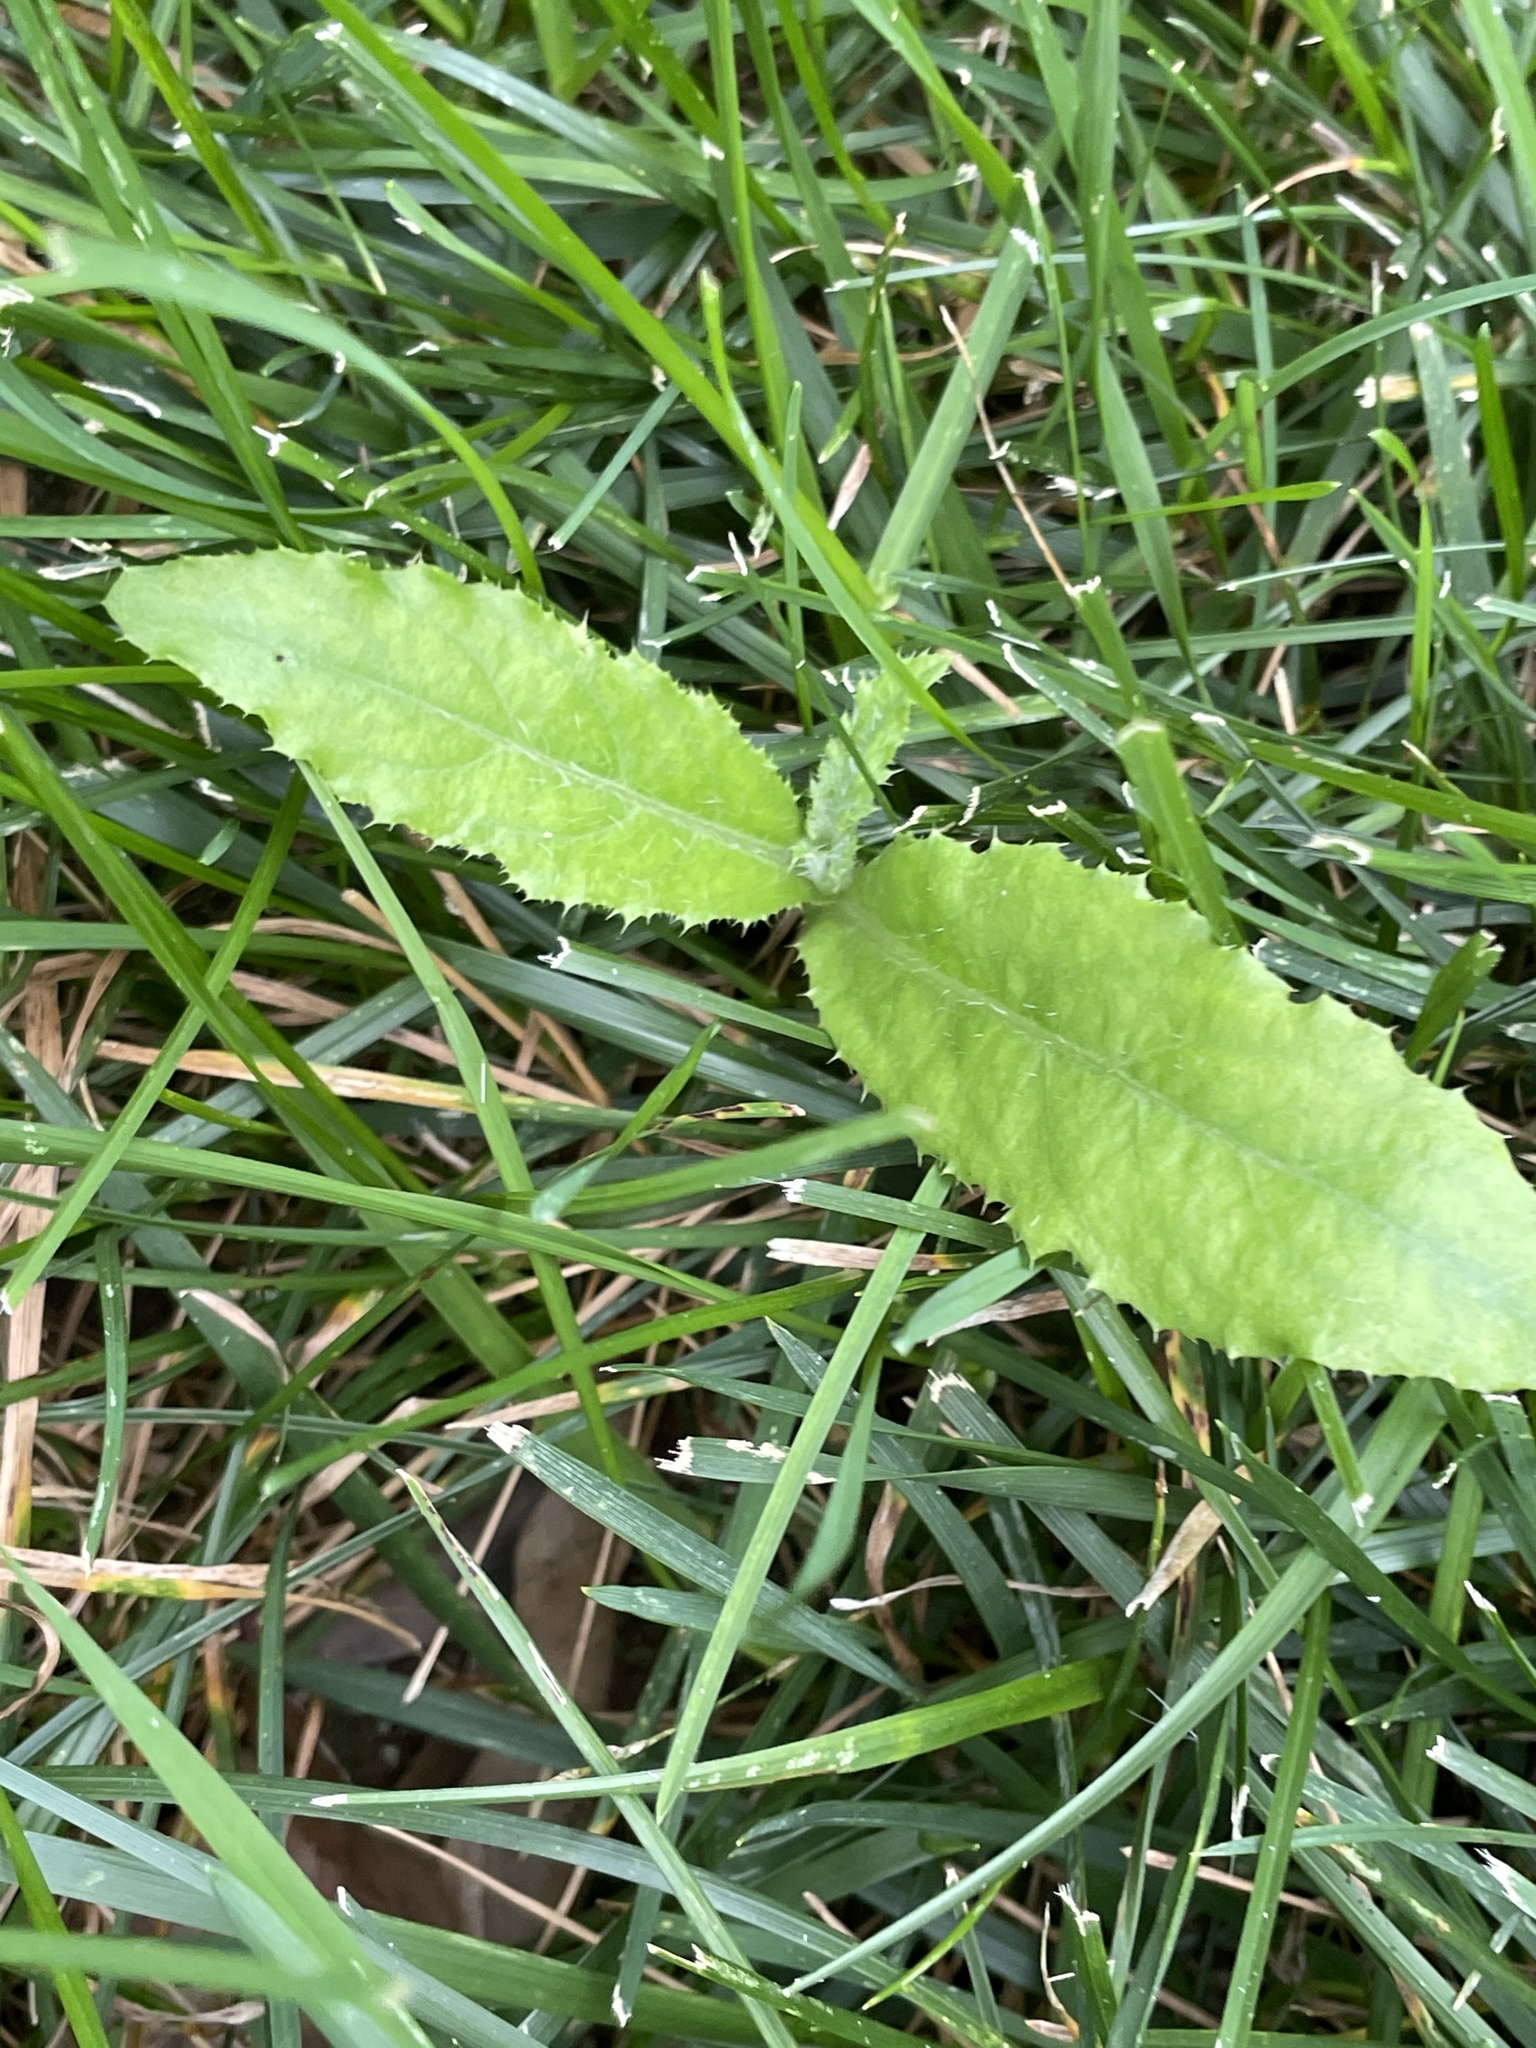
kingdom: Plantae
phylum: Tracheophyta
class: Magnoliopsida
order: Asterales
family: Asteraceae
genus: Cirsium
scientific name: Cirsium arvense
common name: Creeping thistle
